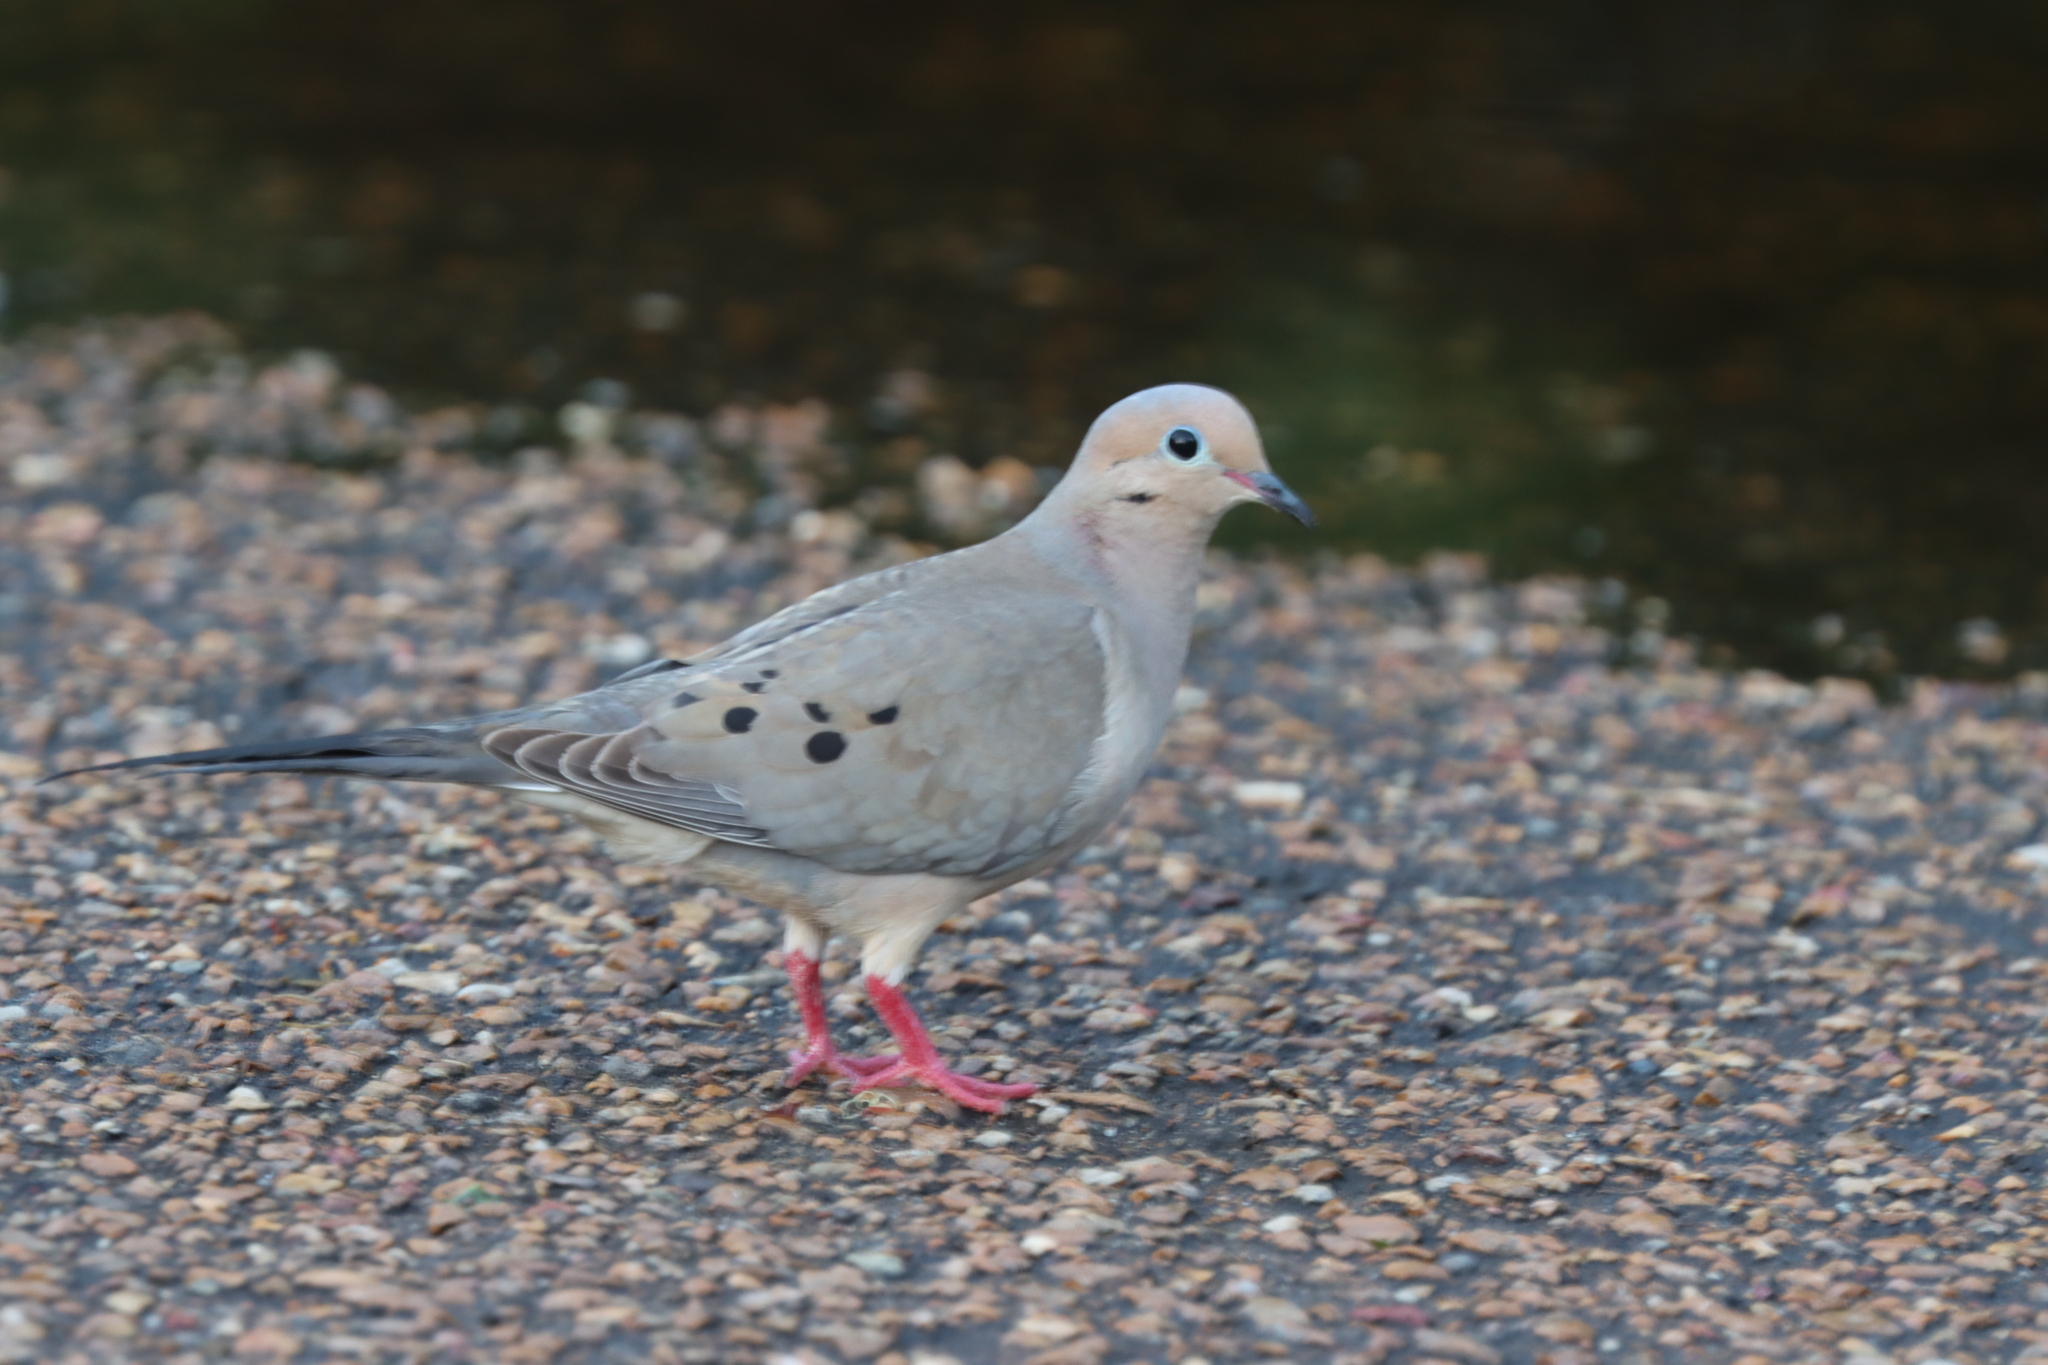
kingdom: Animalia
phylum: Chordata
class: Aves
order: Columbiformes
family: Columbidae
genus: Zenaida
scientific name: Zenaida macroura
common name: Mourning dove
